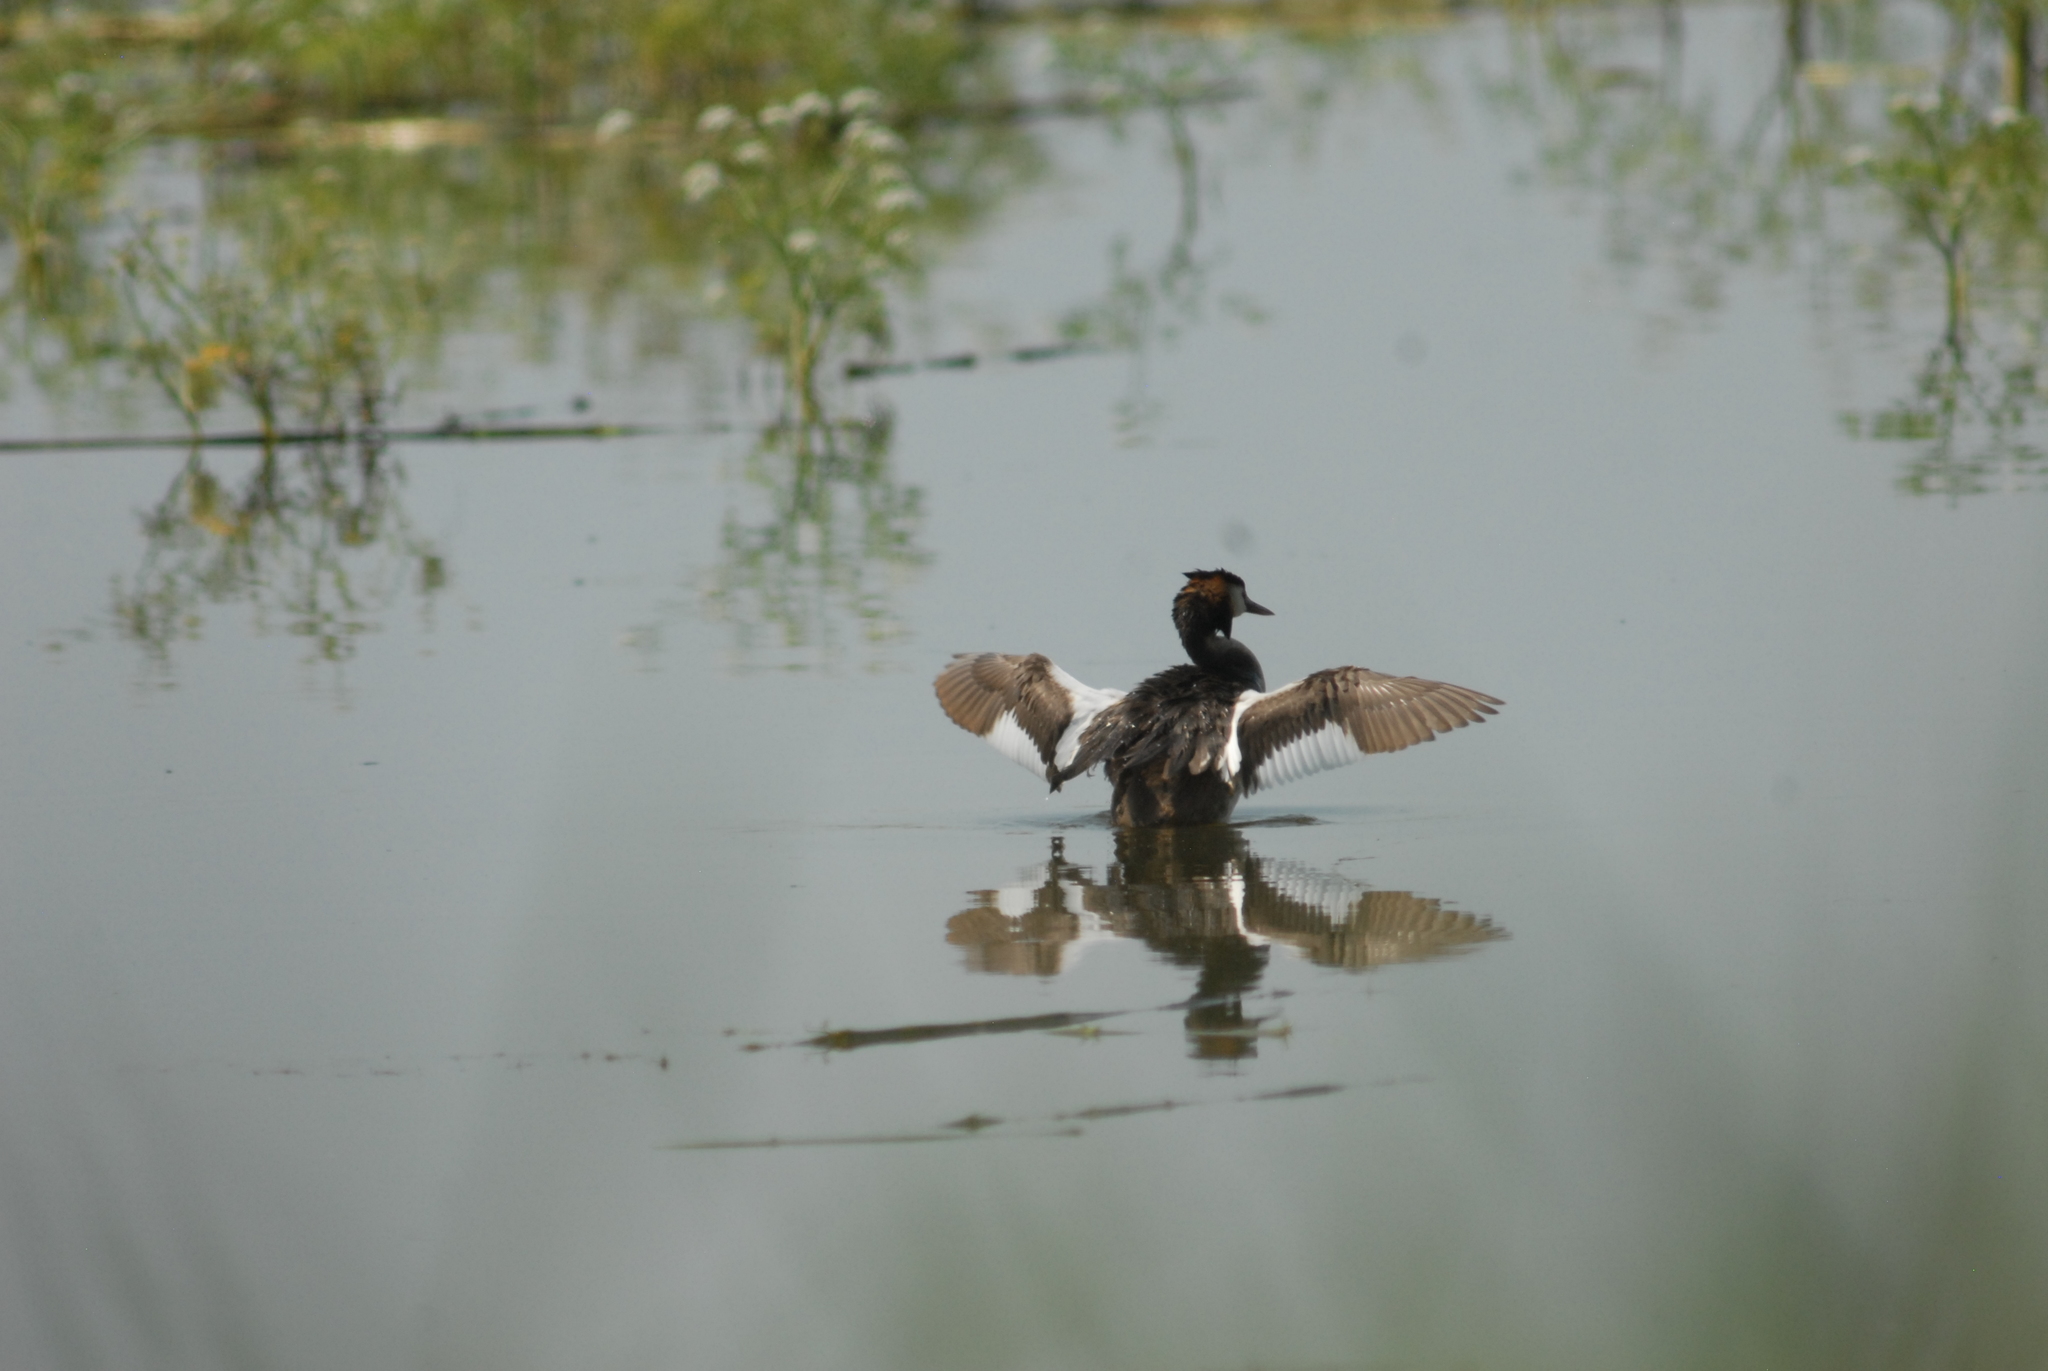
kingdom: Animalia
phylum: Chordata
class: Aves
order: Podicipediformes
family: Podicipedidae
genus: Podiceps
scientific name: Podiceps cristatus
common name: Great crested grebe
